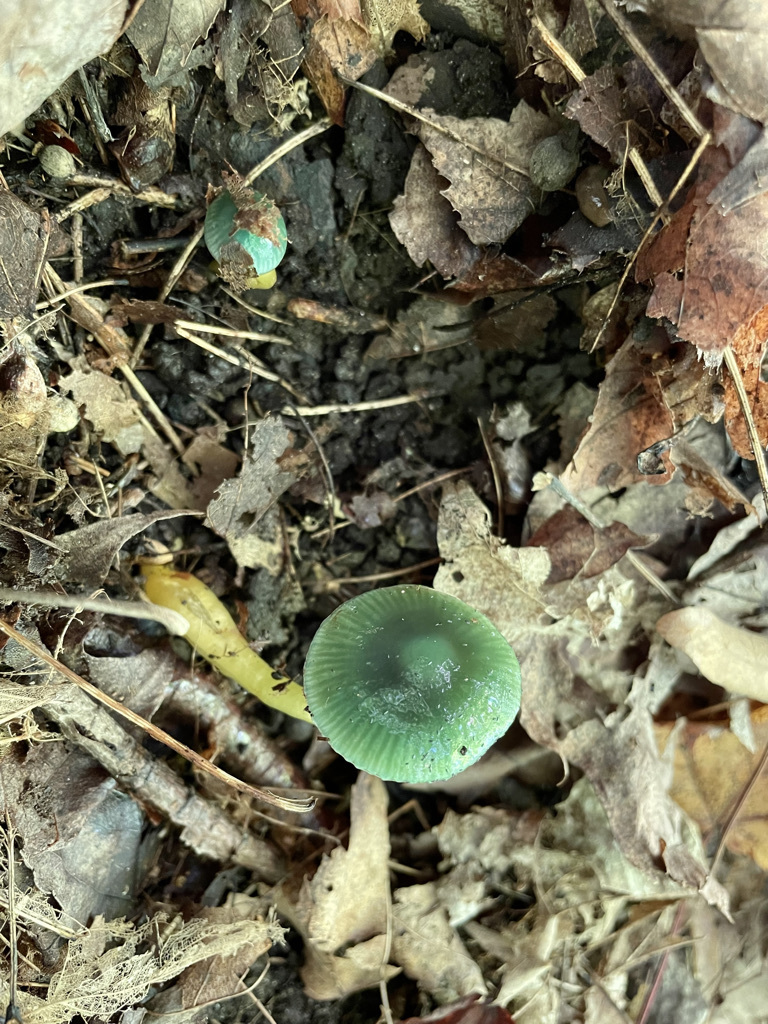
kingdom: Fungi
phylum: Basidiomycota
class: Agaricomycetes
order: Agaricales
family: Hygrophoraceae
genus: Gliophorus
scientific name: Gliophorus psittacinus
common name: Parrot wax-cap
